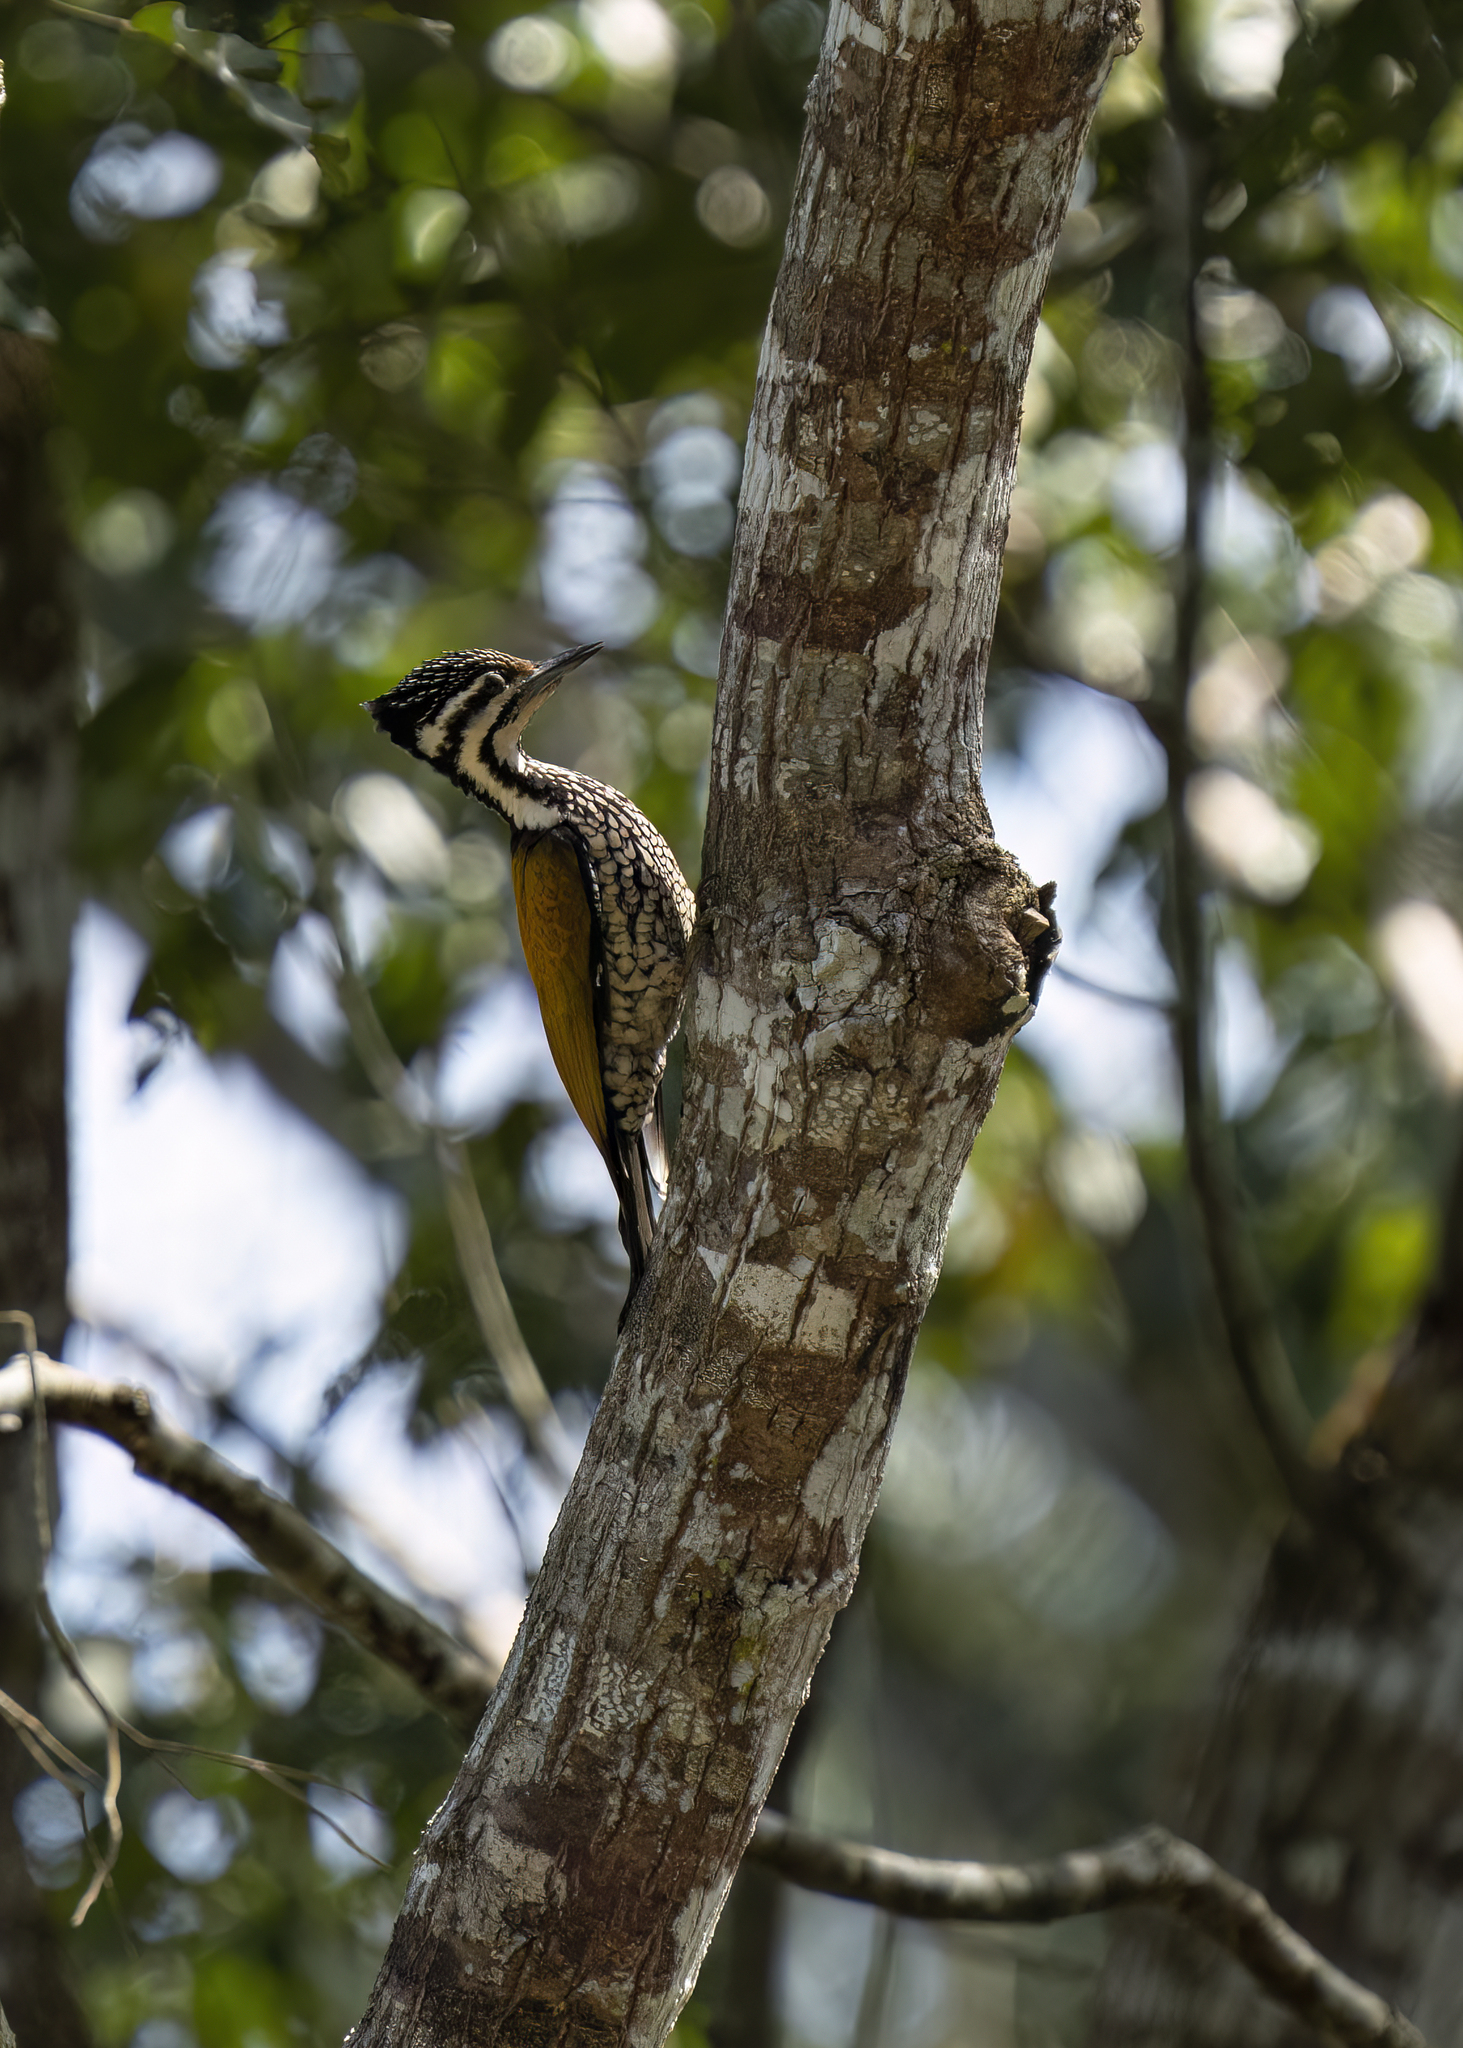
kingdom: Animalia
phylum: Chordata
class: Aves
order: Piciformes
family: Picidae
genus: Dinopium
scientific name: Dinopium javanense
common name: Common flameback
